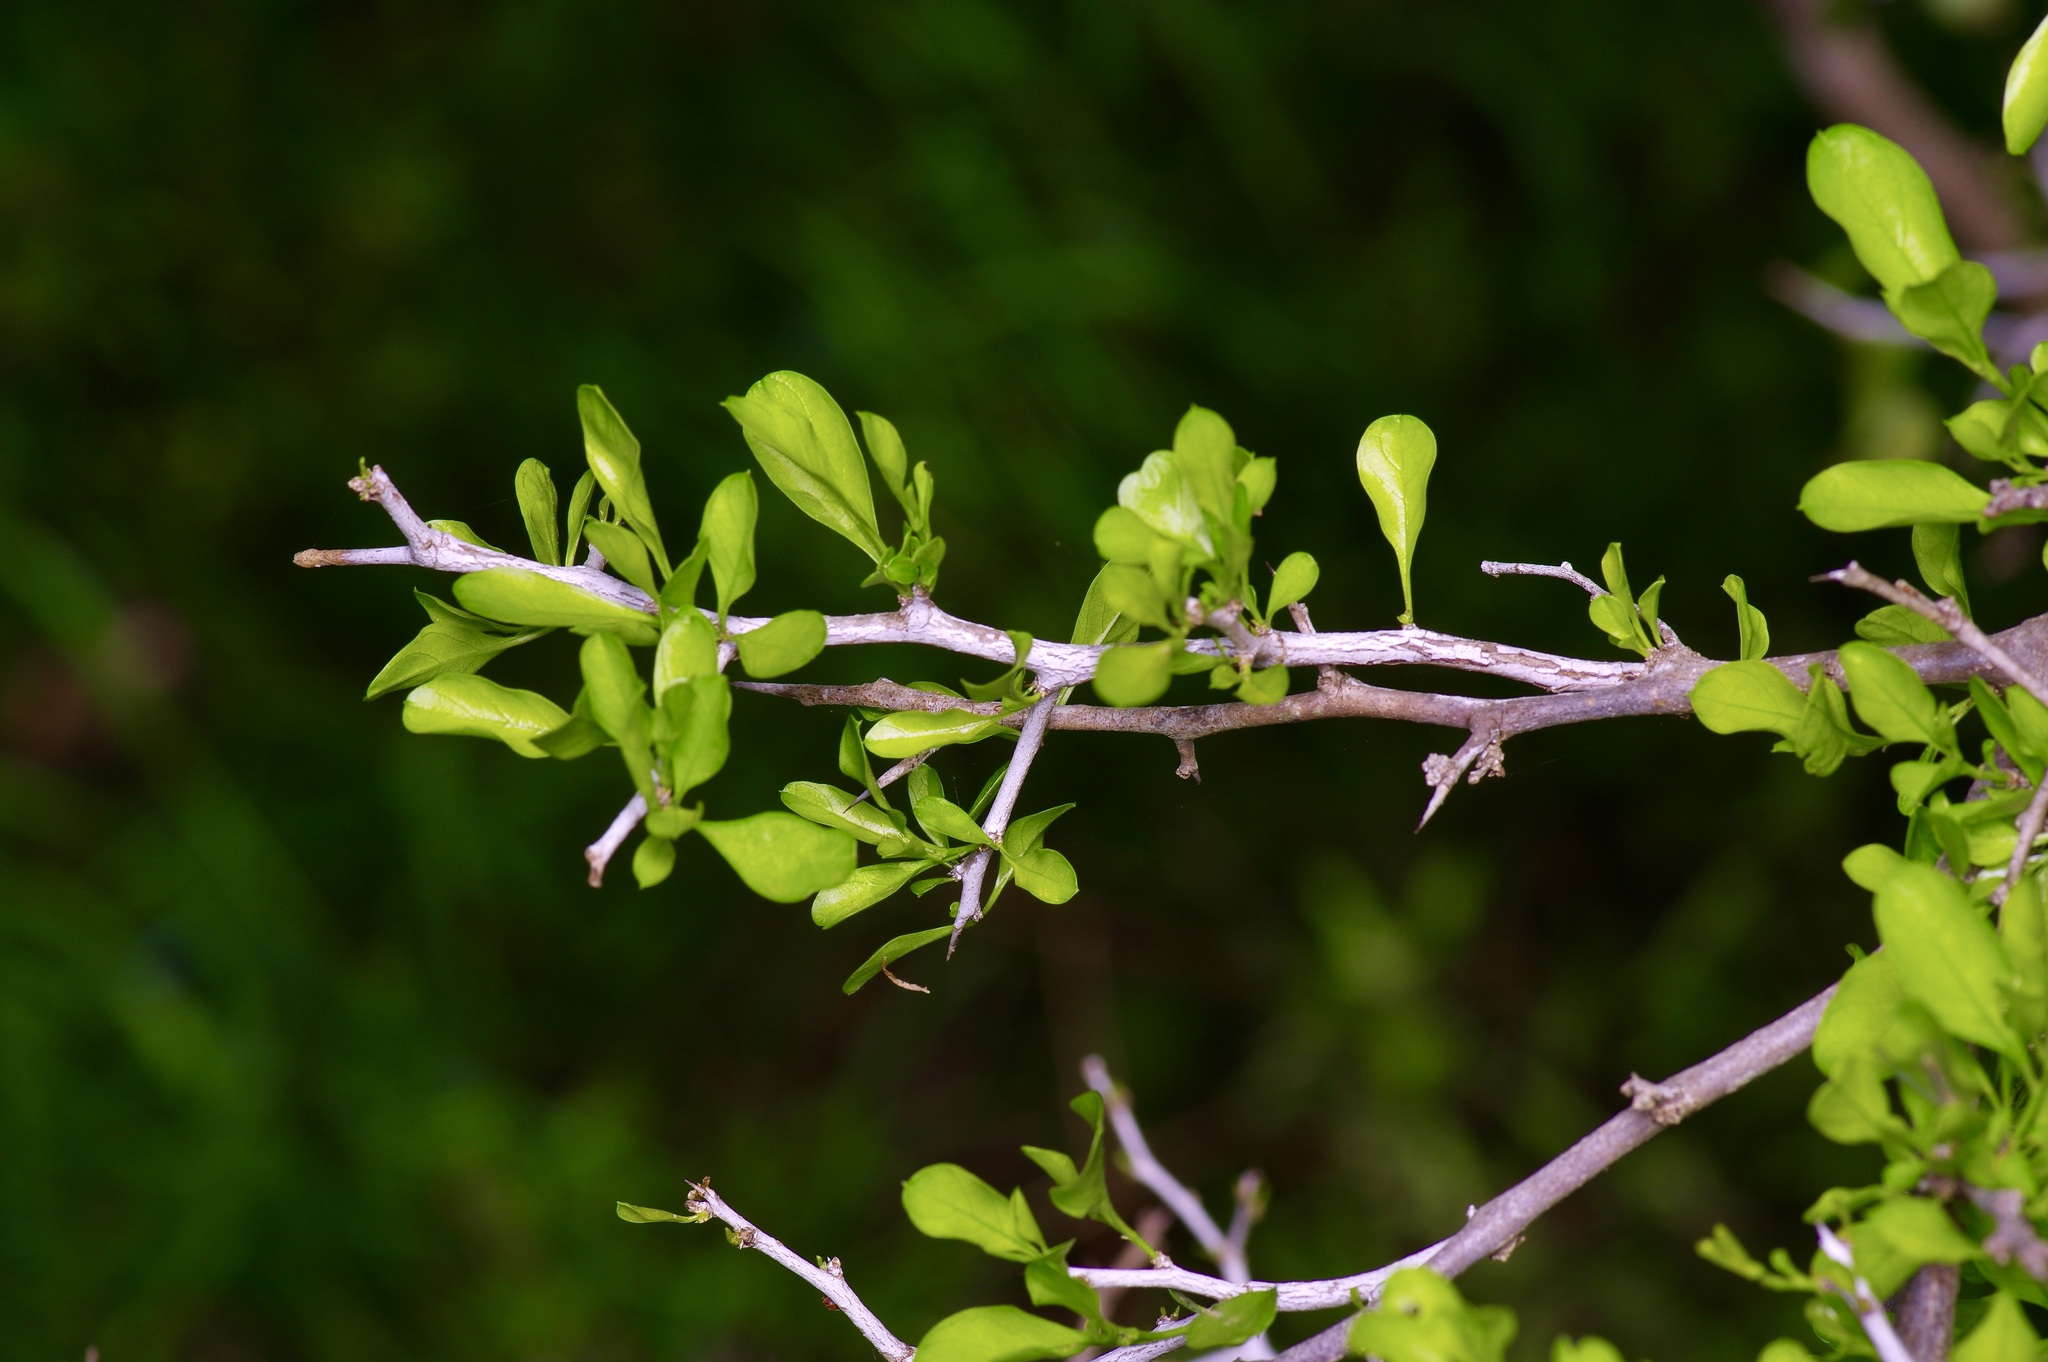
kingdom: Plantae
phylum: Tracheophyta
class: Magnoliopsida
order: Rosales
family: Rhamnaceae
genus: Condalia
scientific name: Condalia hookeri
